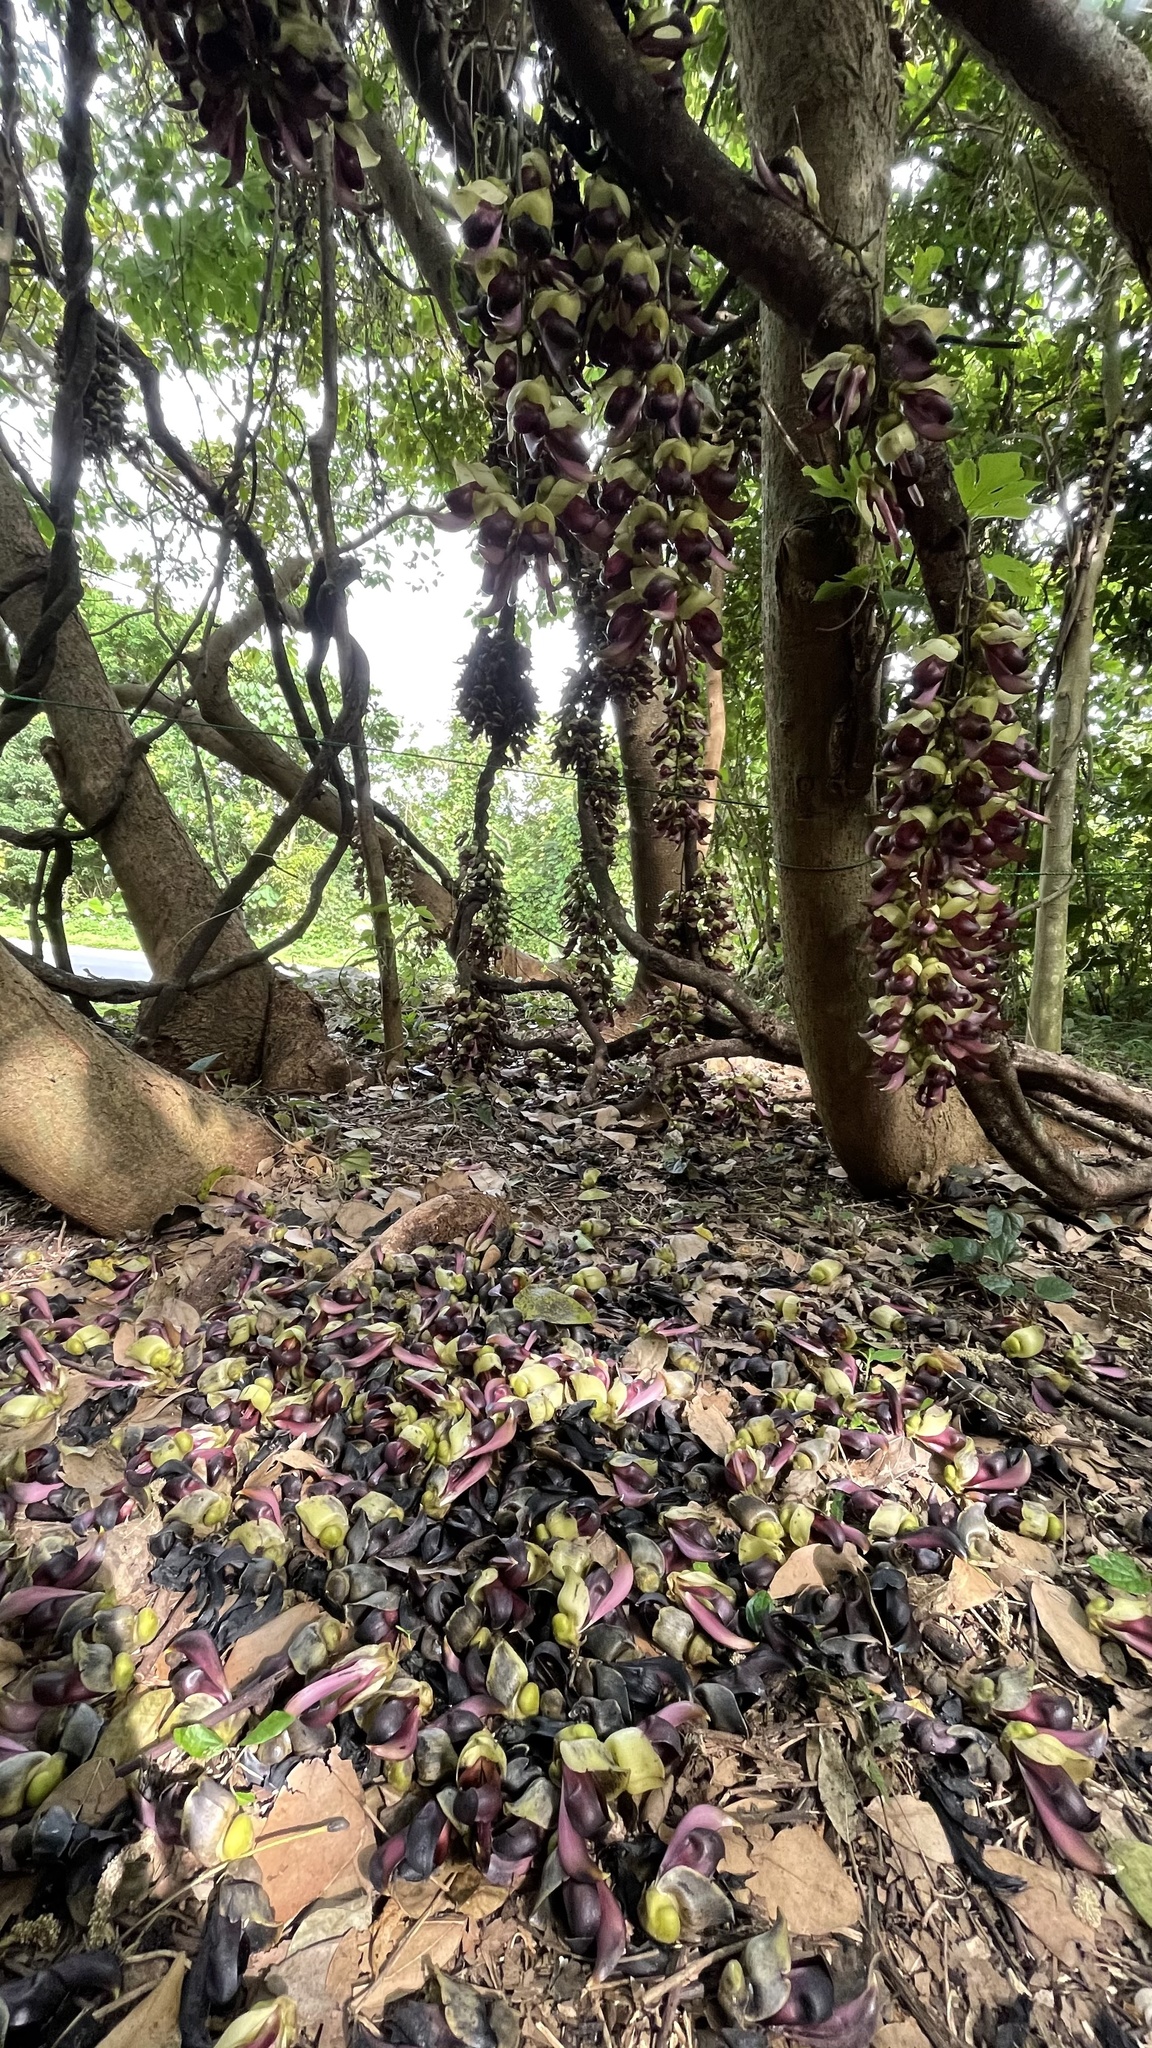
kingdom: Plantae
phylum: Tracheophyta
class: Magnoliopsida
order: Fabales
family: Fabaceae
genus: Mucuna
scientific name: Mucuna macrocarpa
